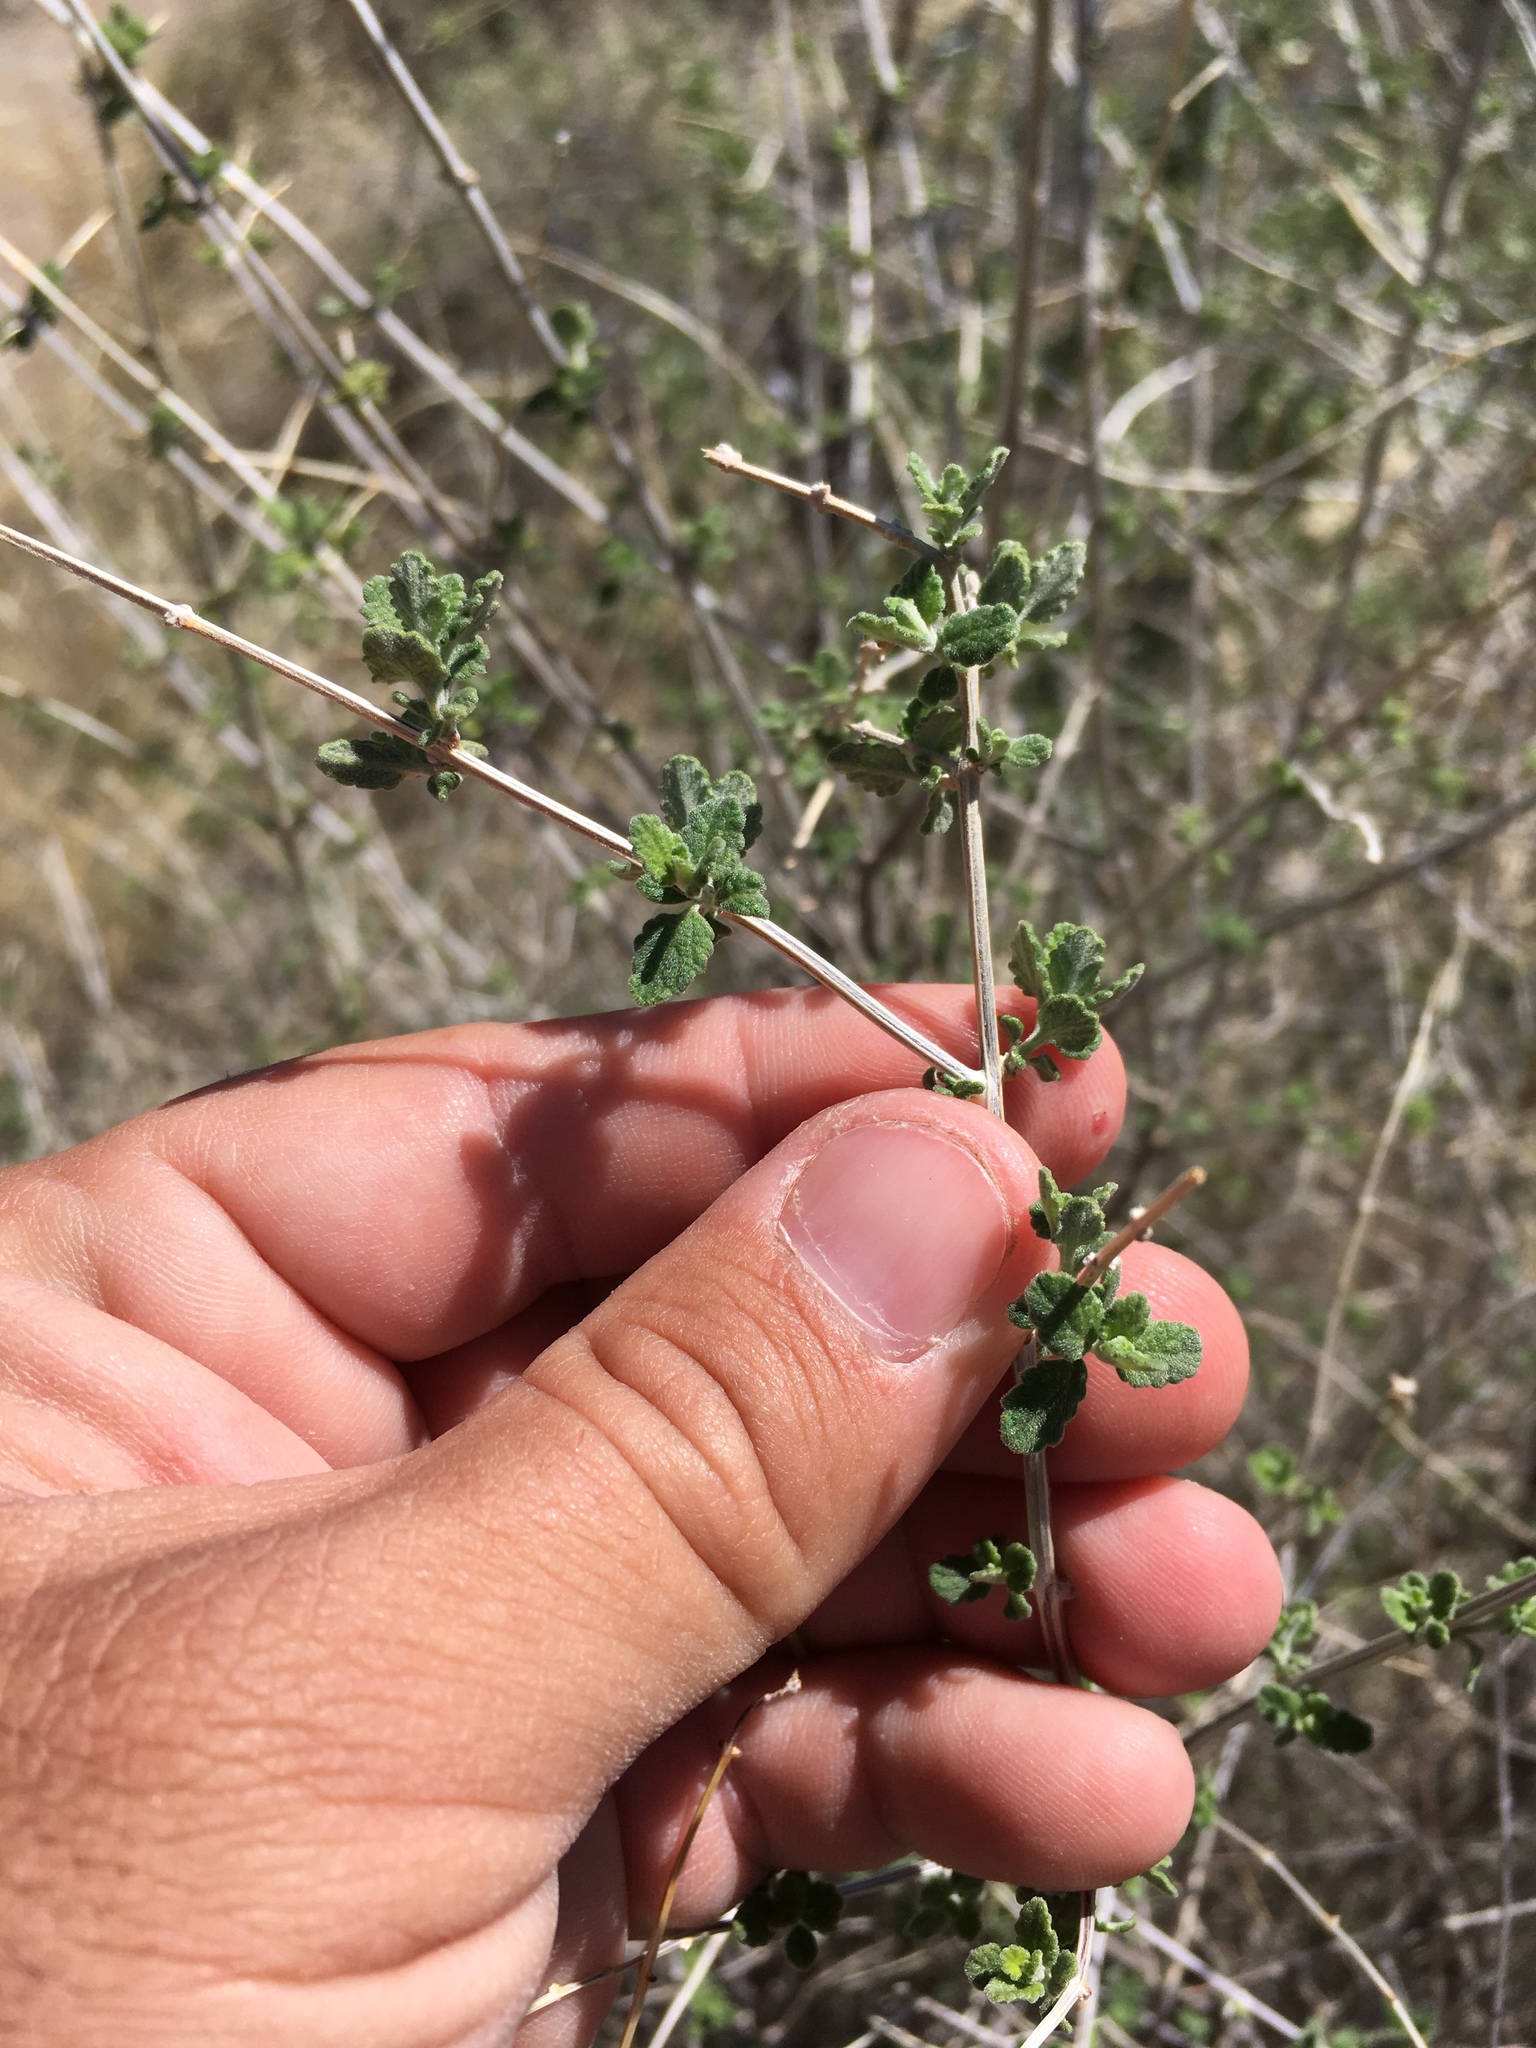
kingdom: Plantae
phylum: Tracheophyta
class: Magnoliopsida
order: Lamiales
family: Verbenaceae
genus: Aloysia
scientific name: Aloysia wrightii
